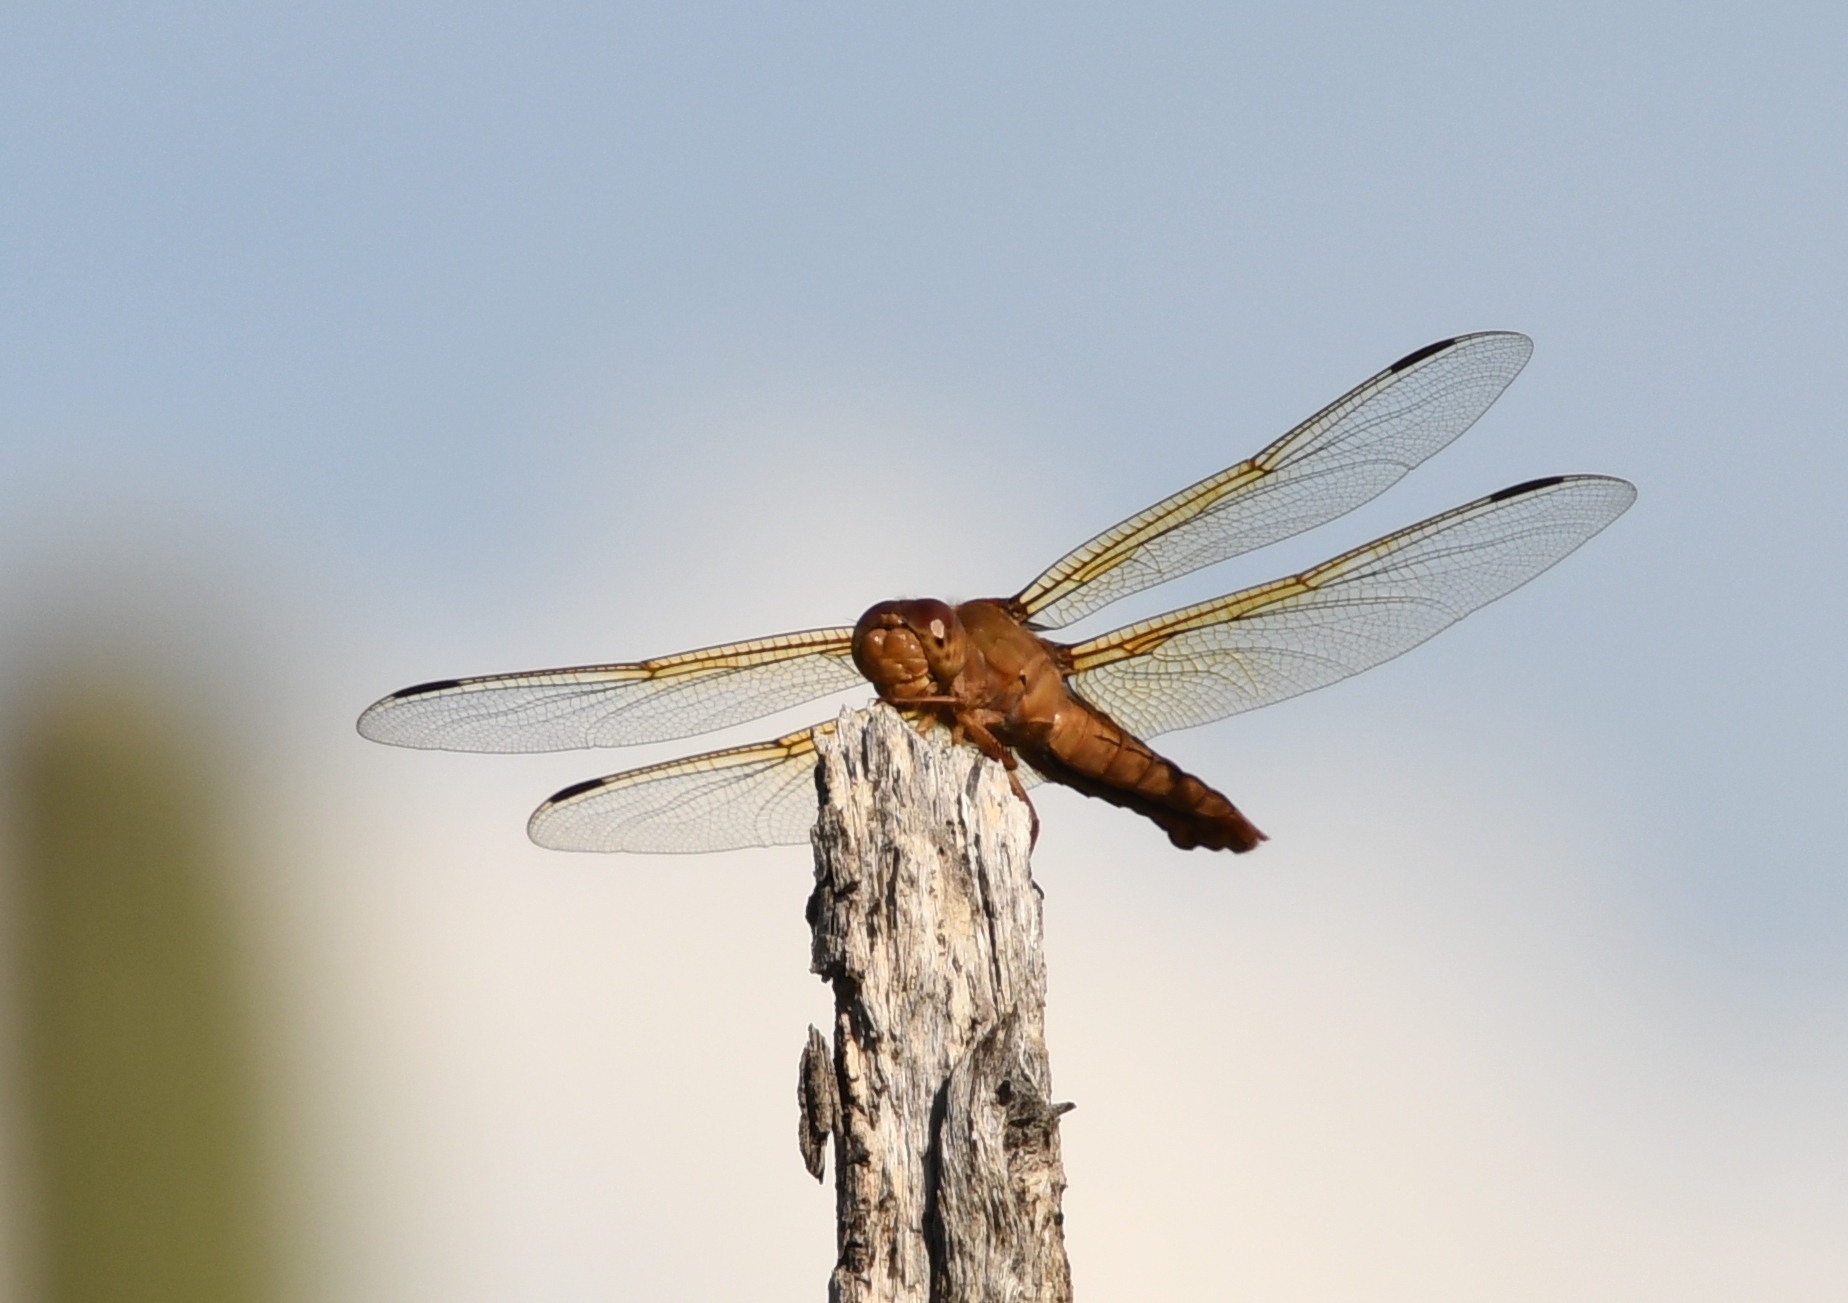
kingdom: Animalia
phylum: Arthropoda
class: Insecta
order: Odonata
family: Libellulidae
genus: Libellula
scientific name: Libellula saturata
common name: Flame skimmer
